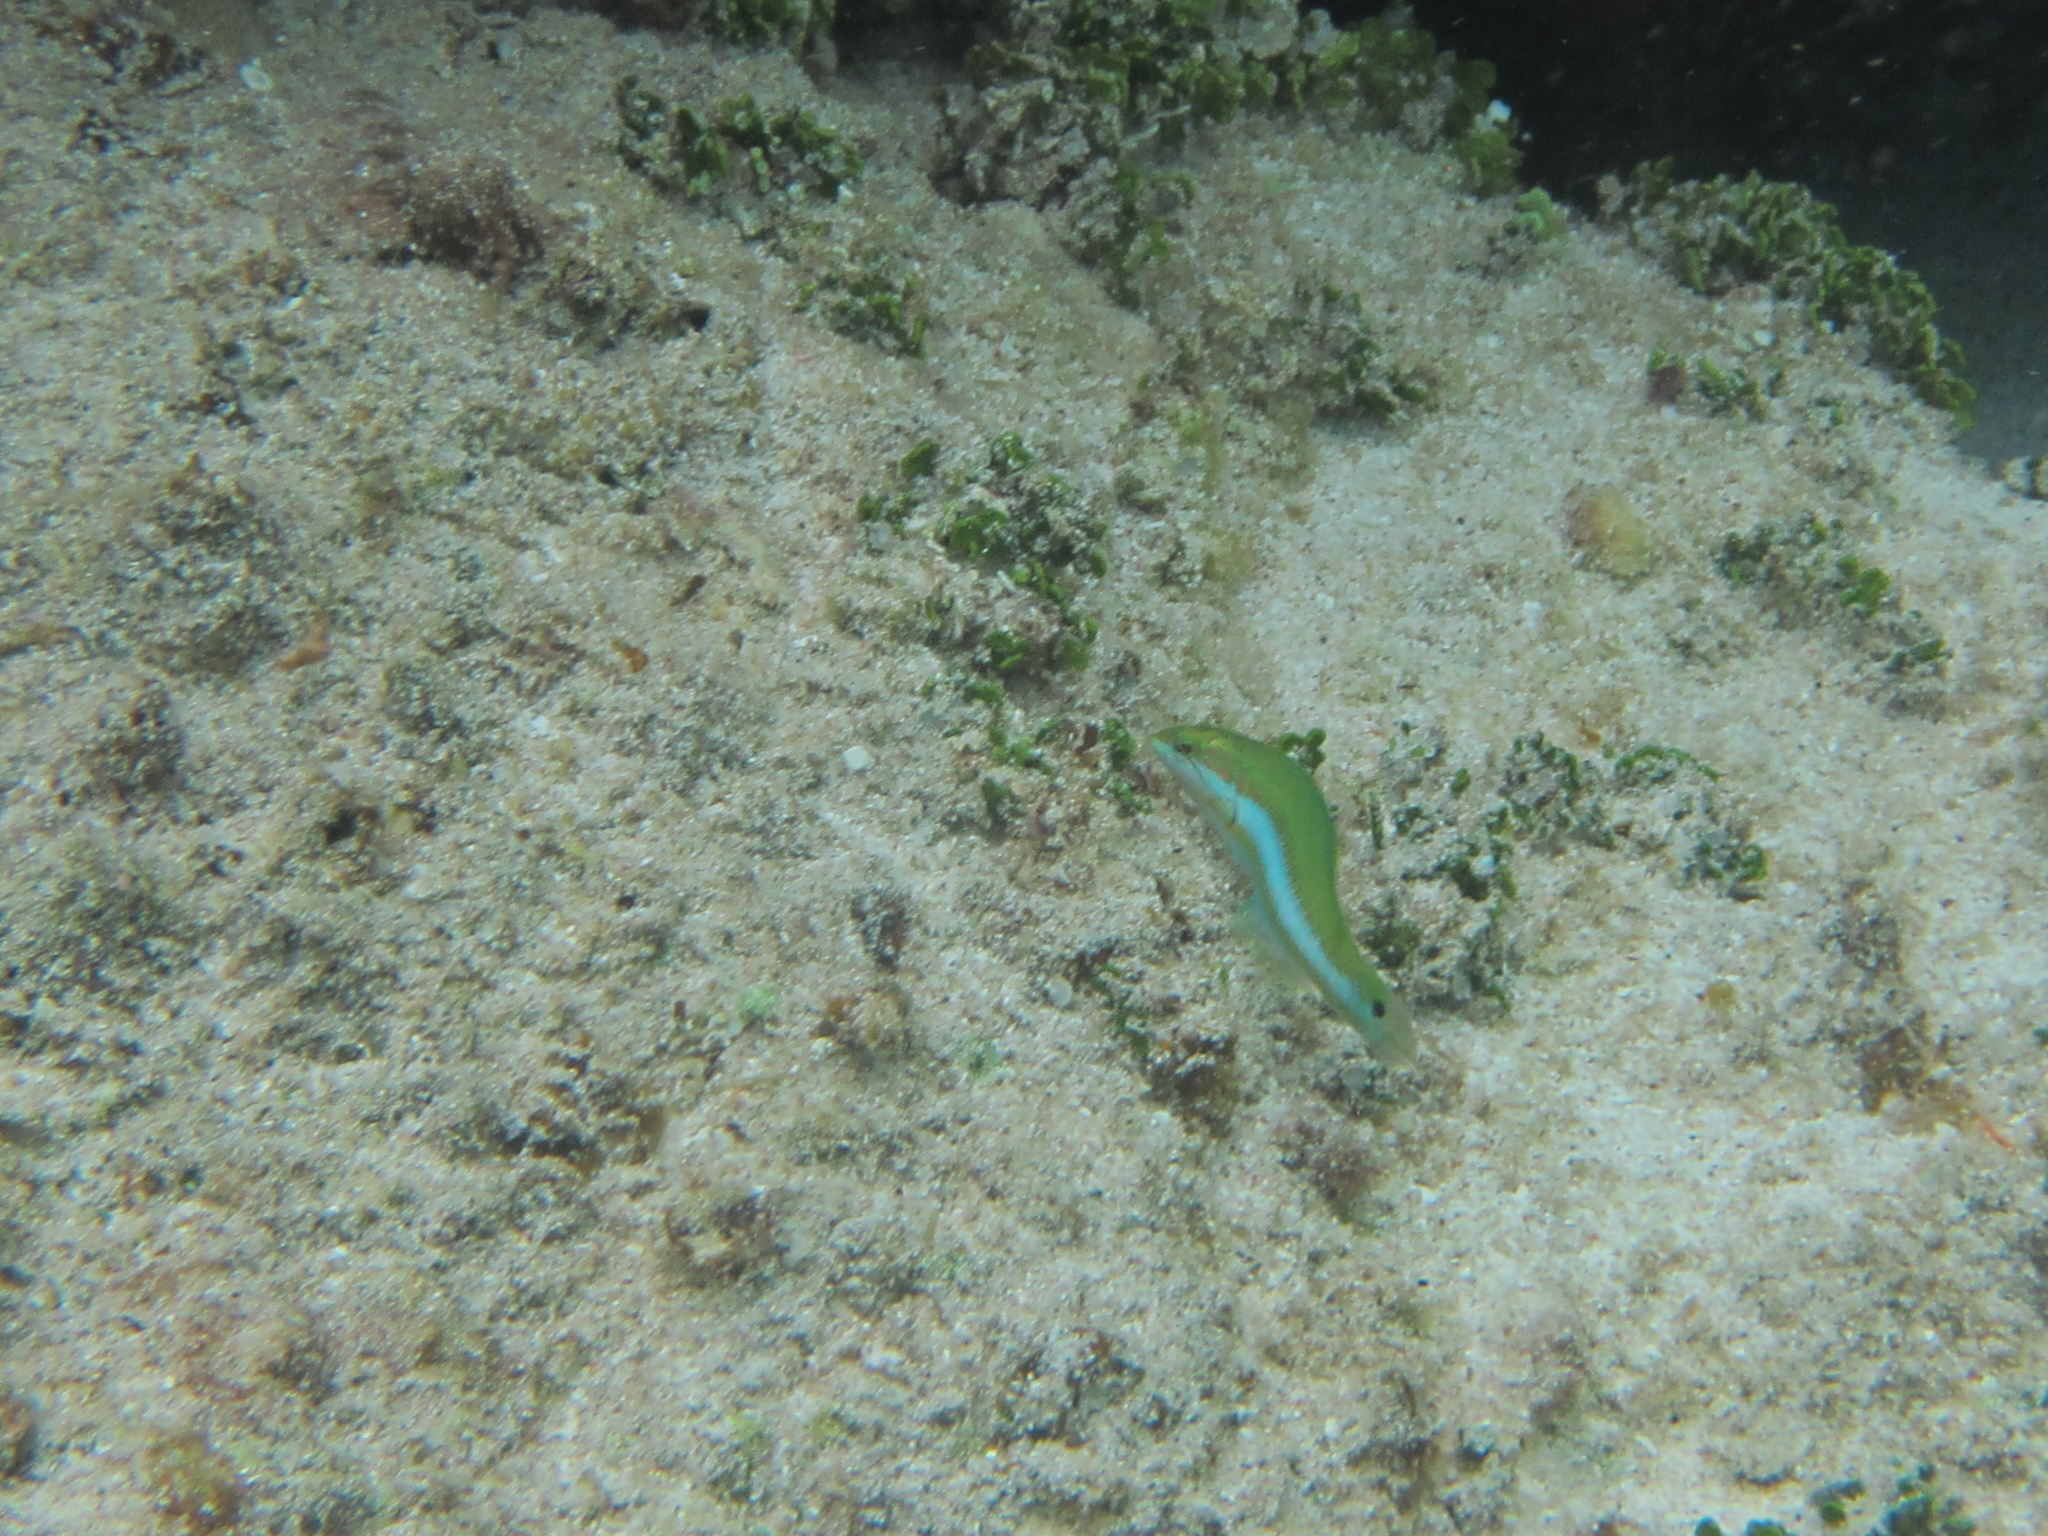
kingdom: Animalia
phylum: Chordata
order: Perciformes
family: Labridae
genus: Thalassoma
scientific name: Thalassoma lutescens
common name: Green moon wrasse
